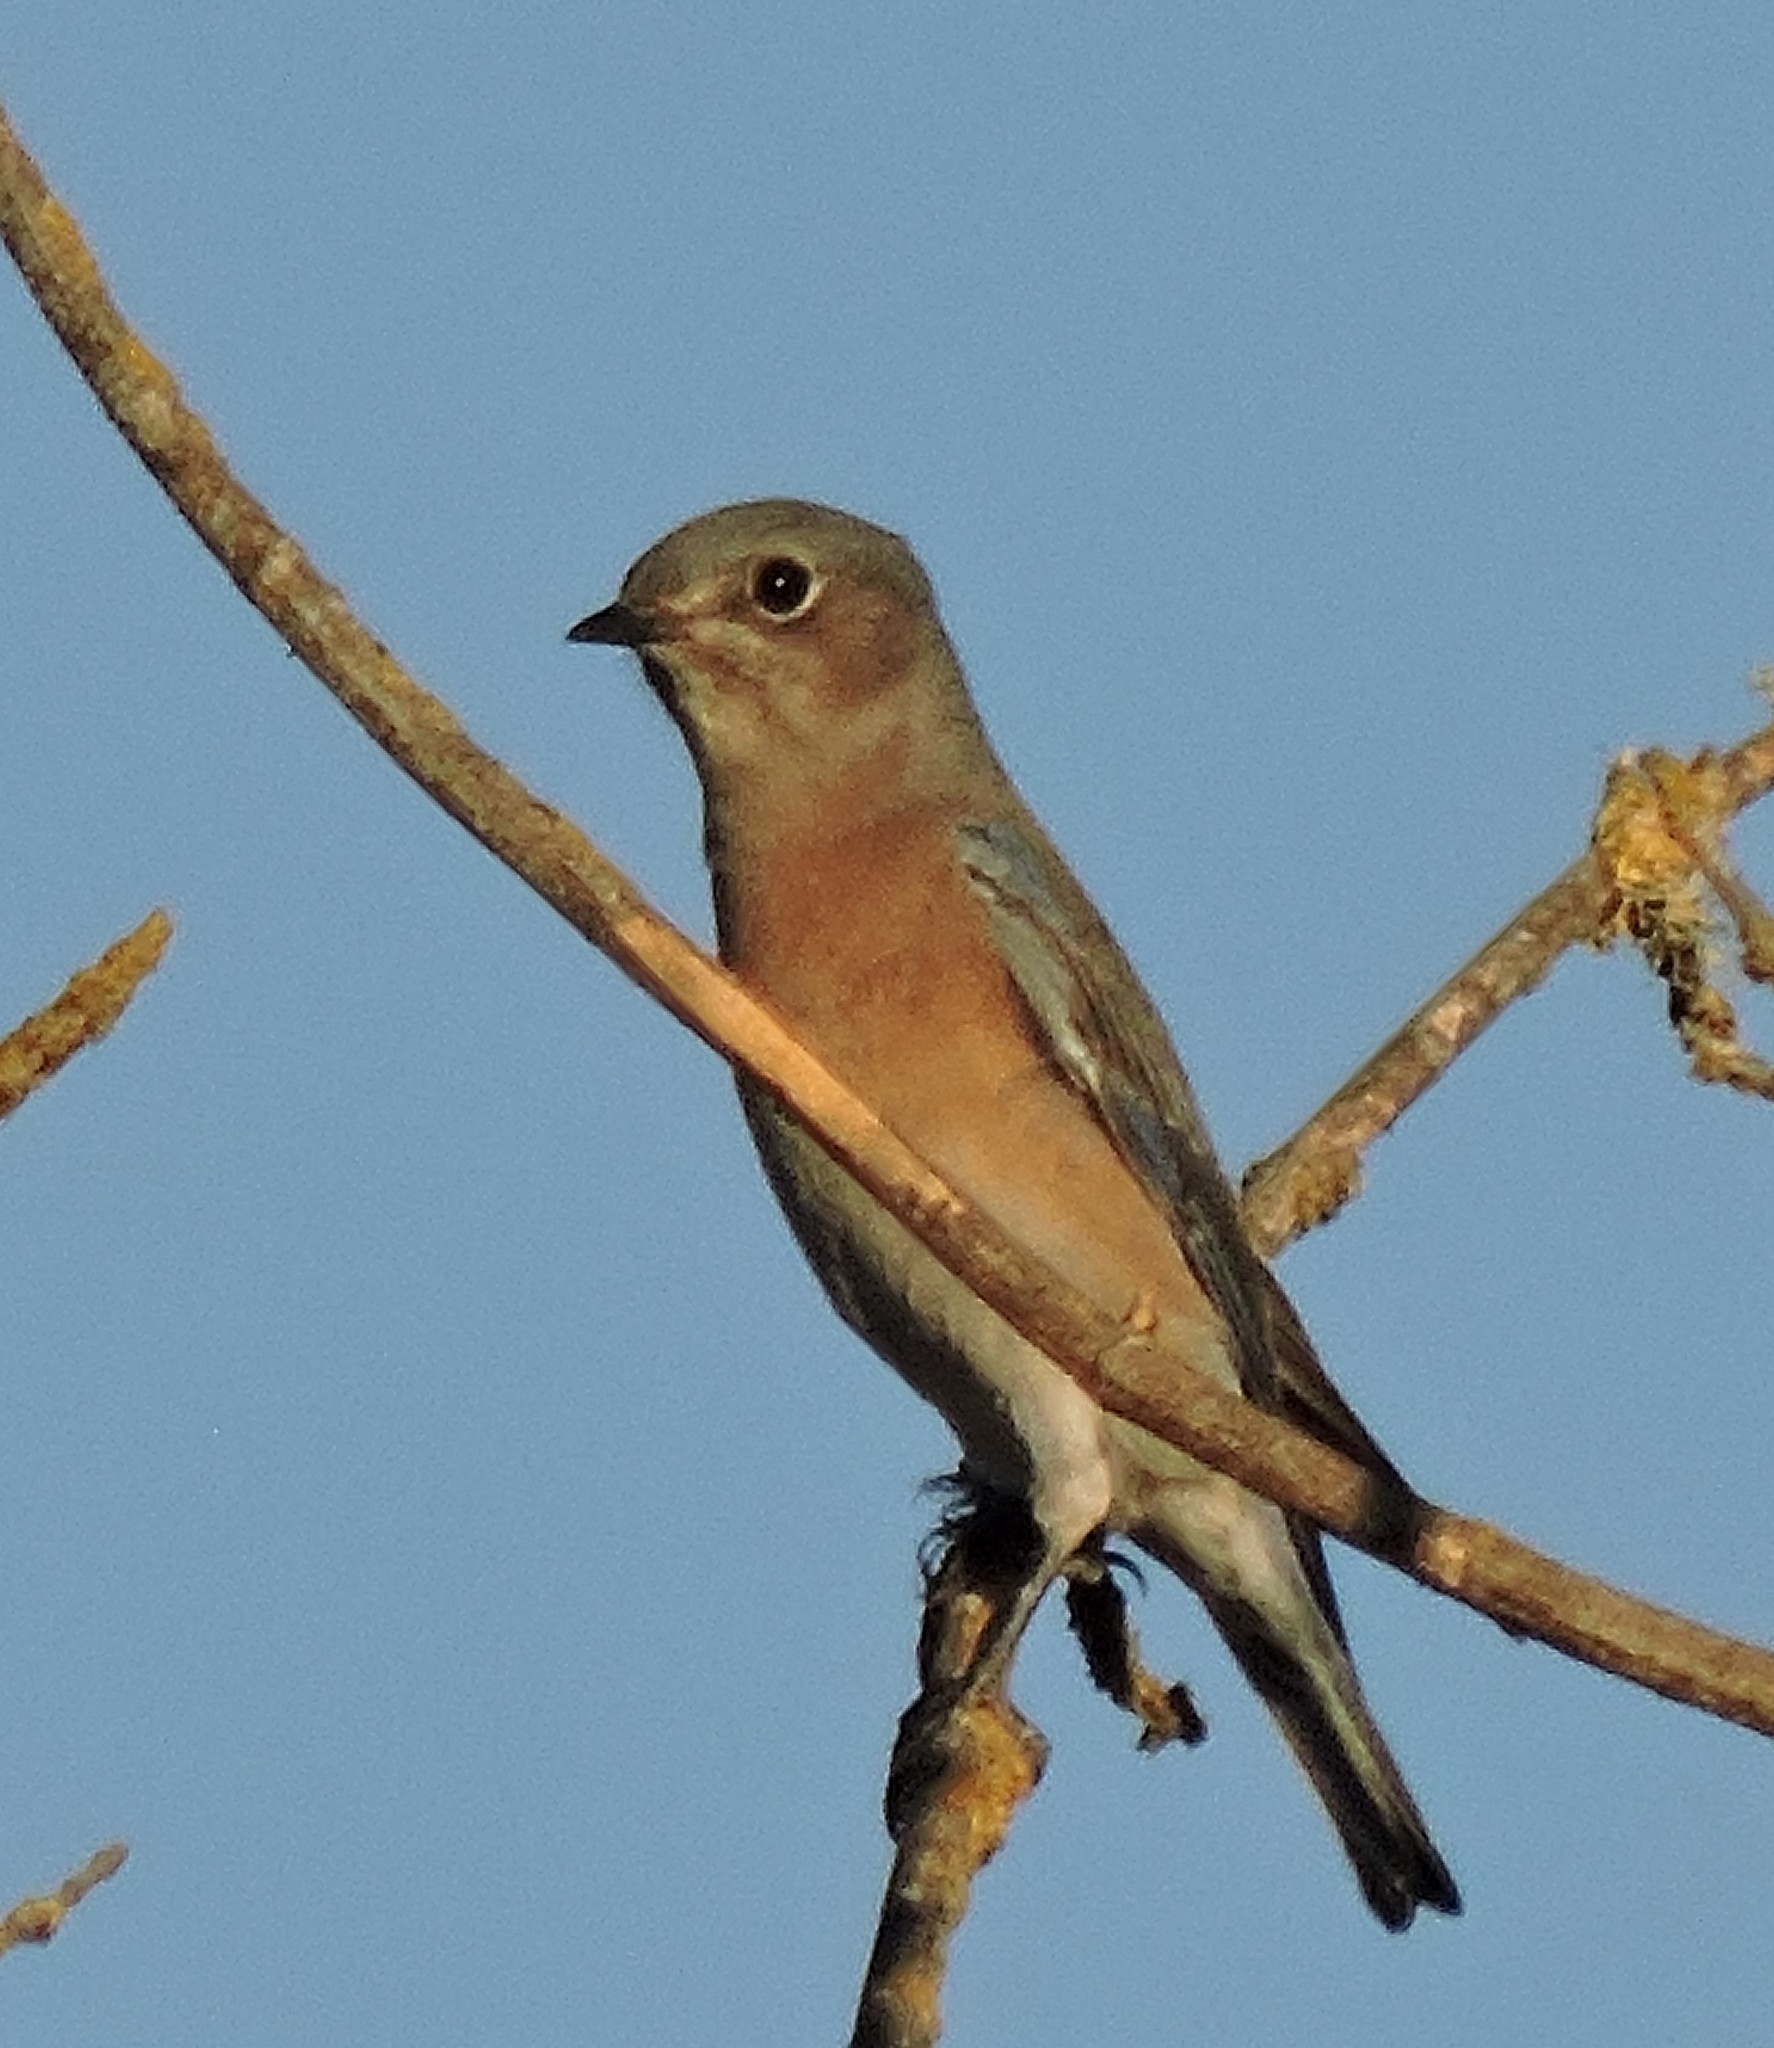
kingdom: Animalia
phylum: Chordata
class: Aves
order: Passeriformes
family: Turdidae
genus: Sialia
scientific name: Sialia mexicana
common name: Western bluebird
